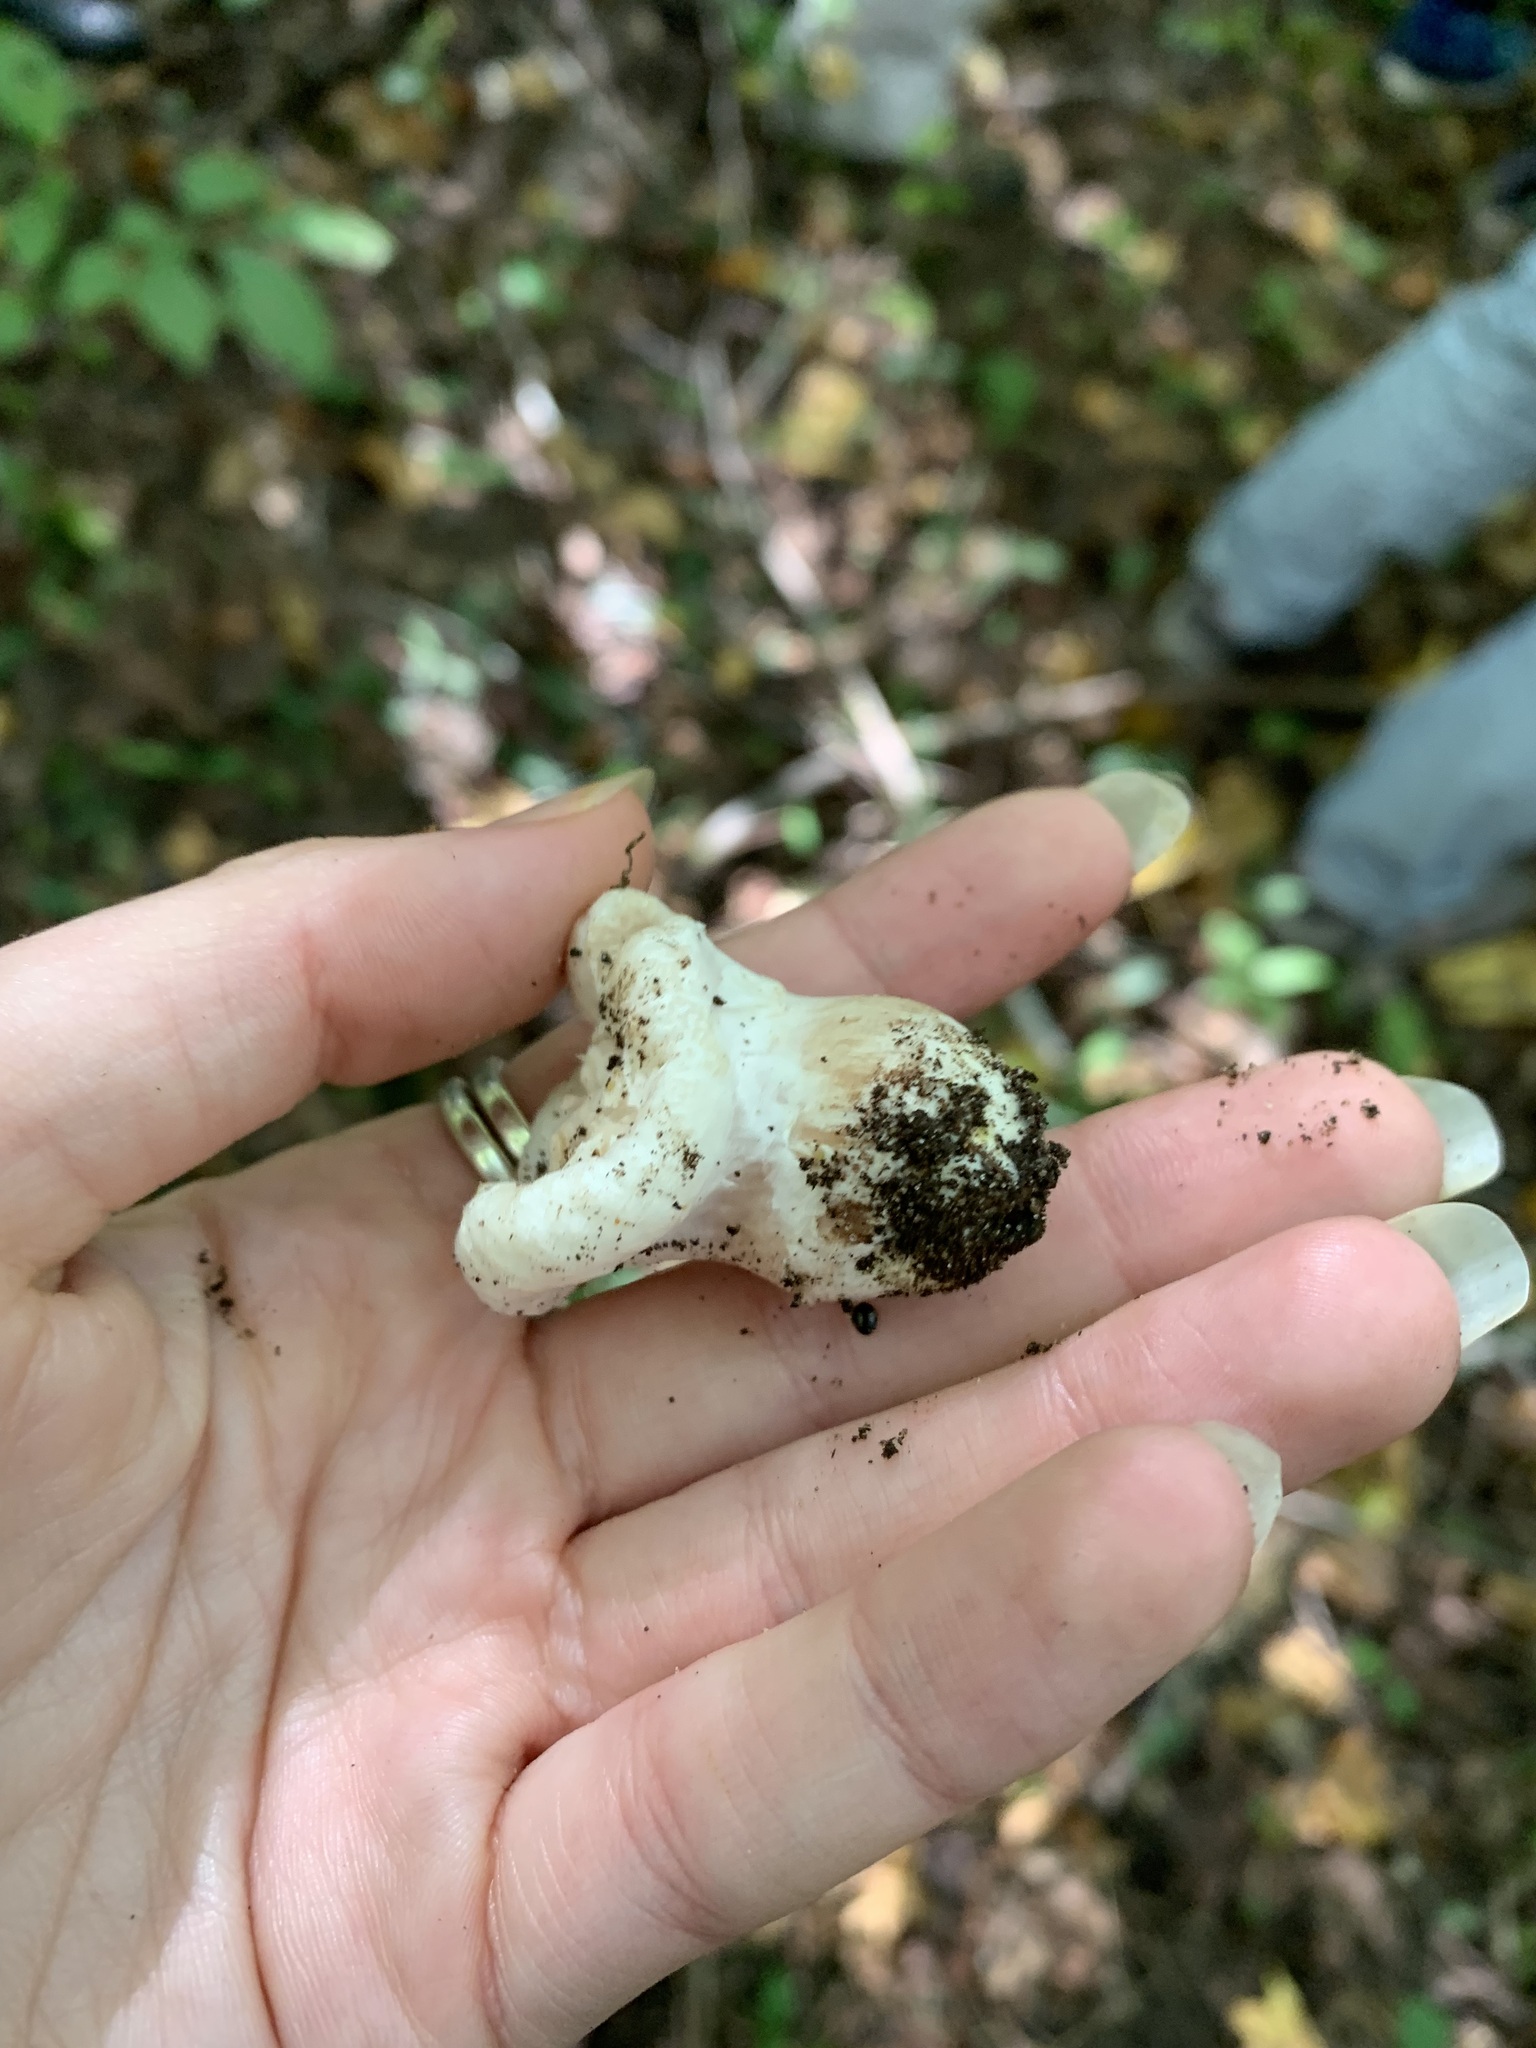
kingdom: Fungi
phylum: Basidiomycota
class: Agaricomycetes
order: Agaricales
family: Entolomataceae
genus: Entoloma
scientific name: Entoloma abortivum
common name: Aborted entoloma
